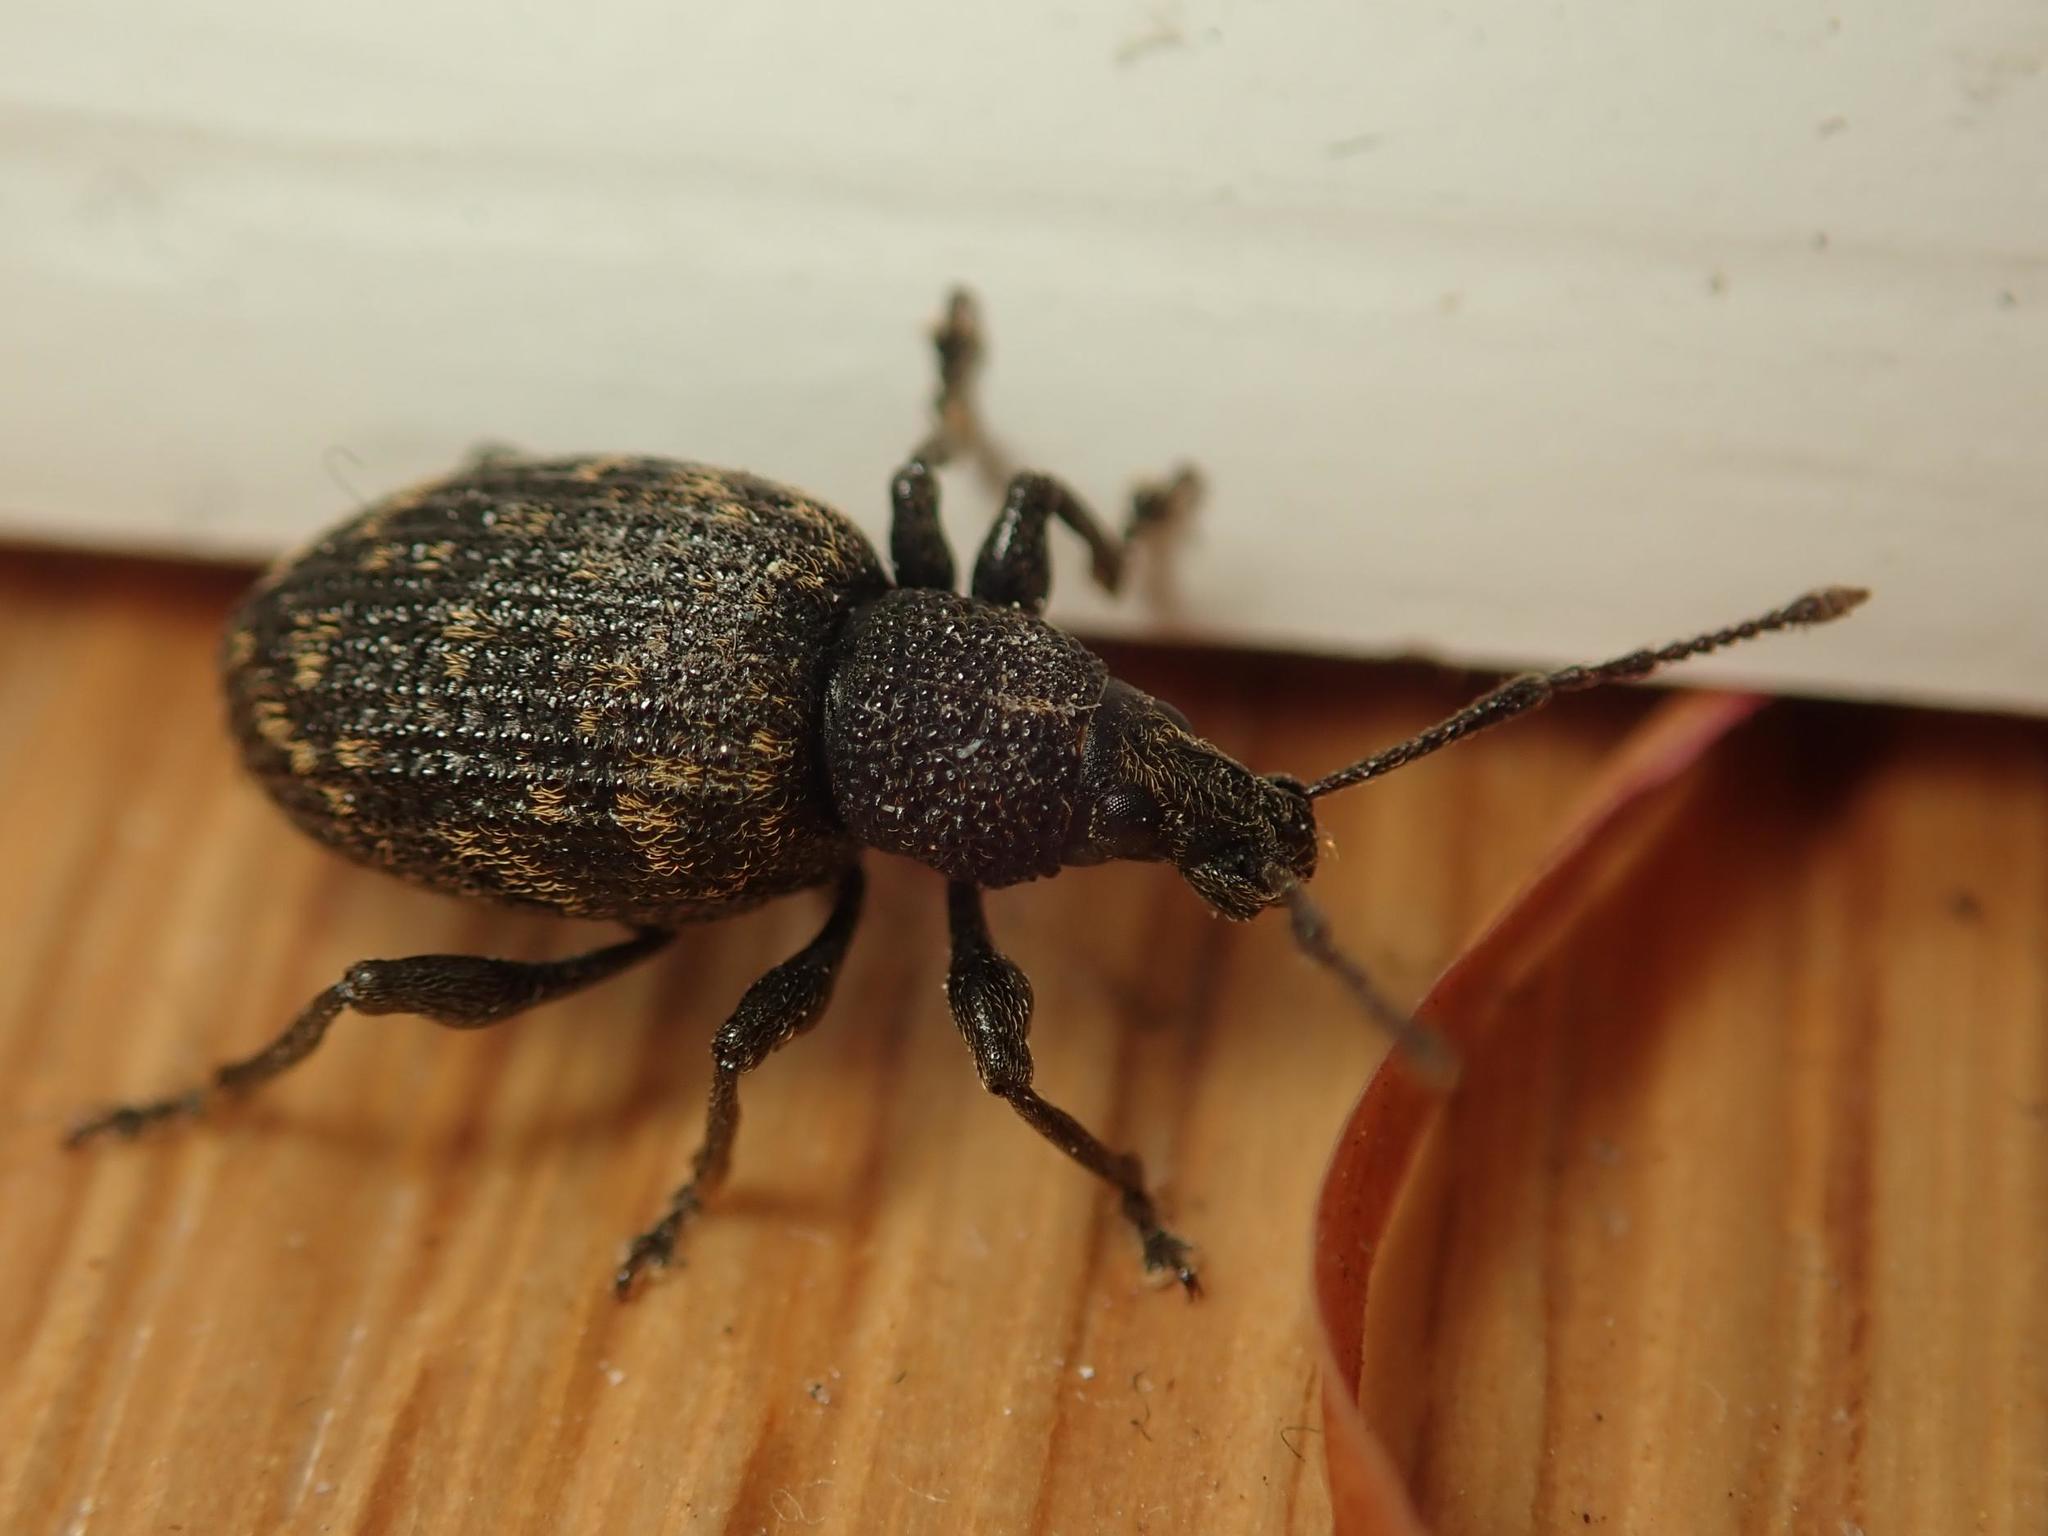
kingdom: Animalia
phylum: Arthropoda
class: Insecta
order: Coleoptera
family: Curculionidae
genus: Otiorhynchus
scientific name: Otiorhynchus sulcatus
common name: Black vine weevil
